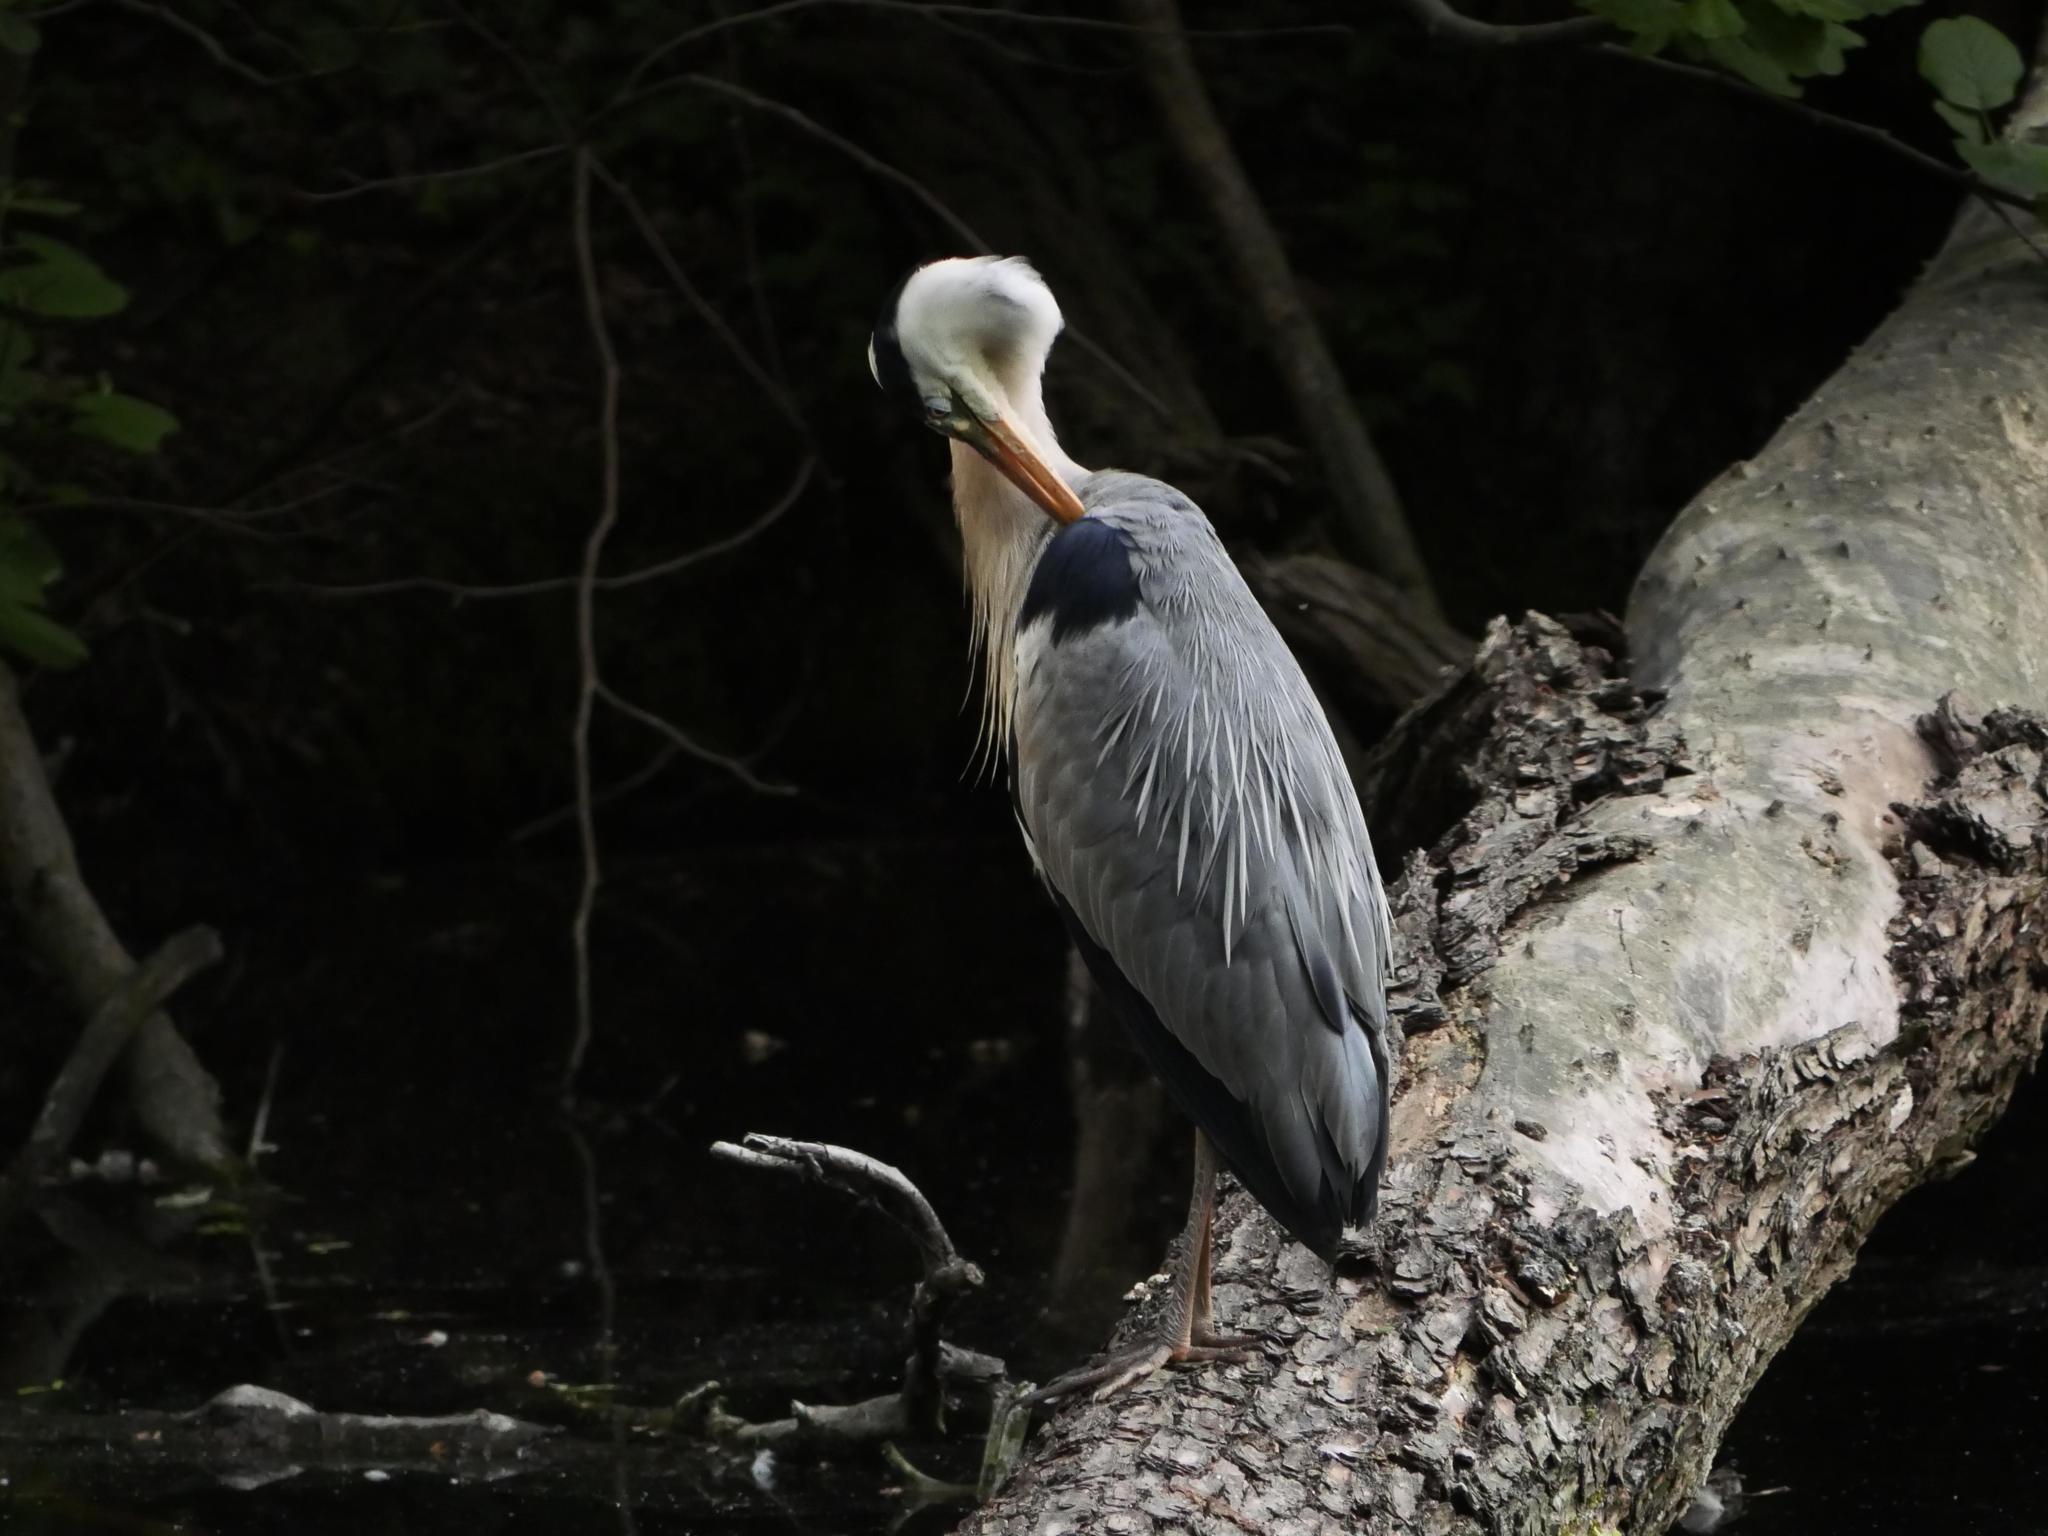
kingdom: Animalia
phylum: Chordata
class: Aves
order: Pelecaniformes
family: Ardeidae
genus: Ardea
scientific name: Ardea cinerea
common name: Grey heron
